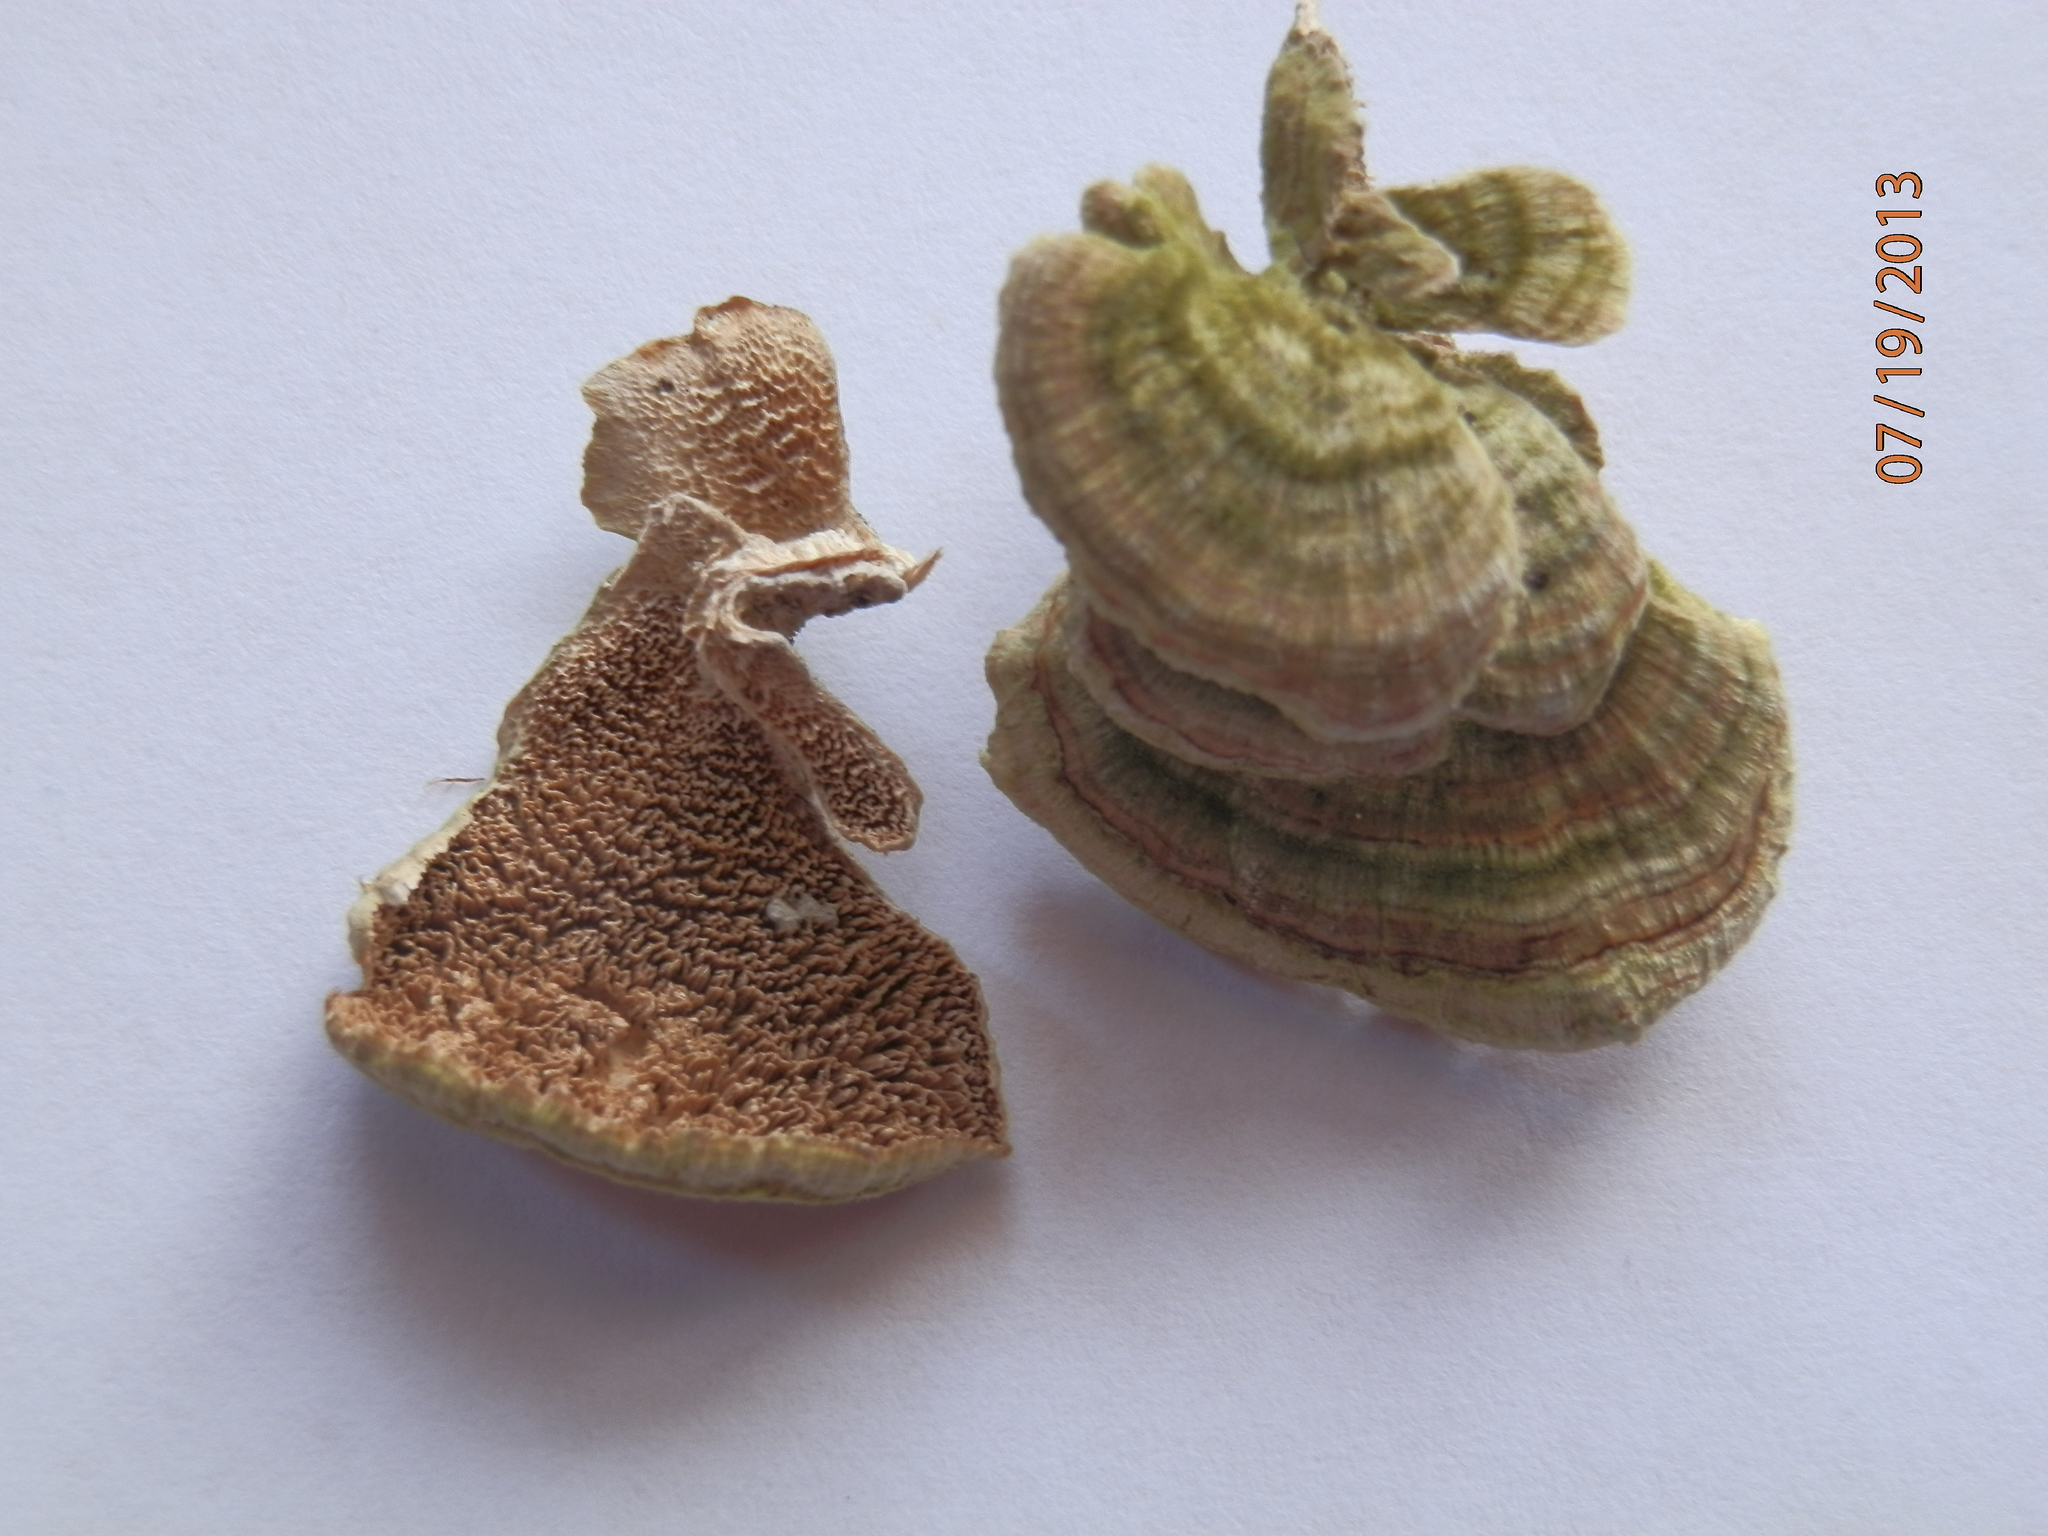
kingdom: Fungi
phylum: Basidiomycota
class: Agaricomycetes
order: Hymenochaetales
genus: Trichaptum
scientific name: Trichaptum biforme
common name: Violet-toothed polypore
